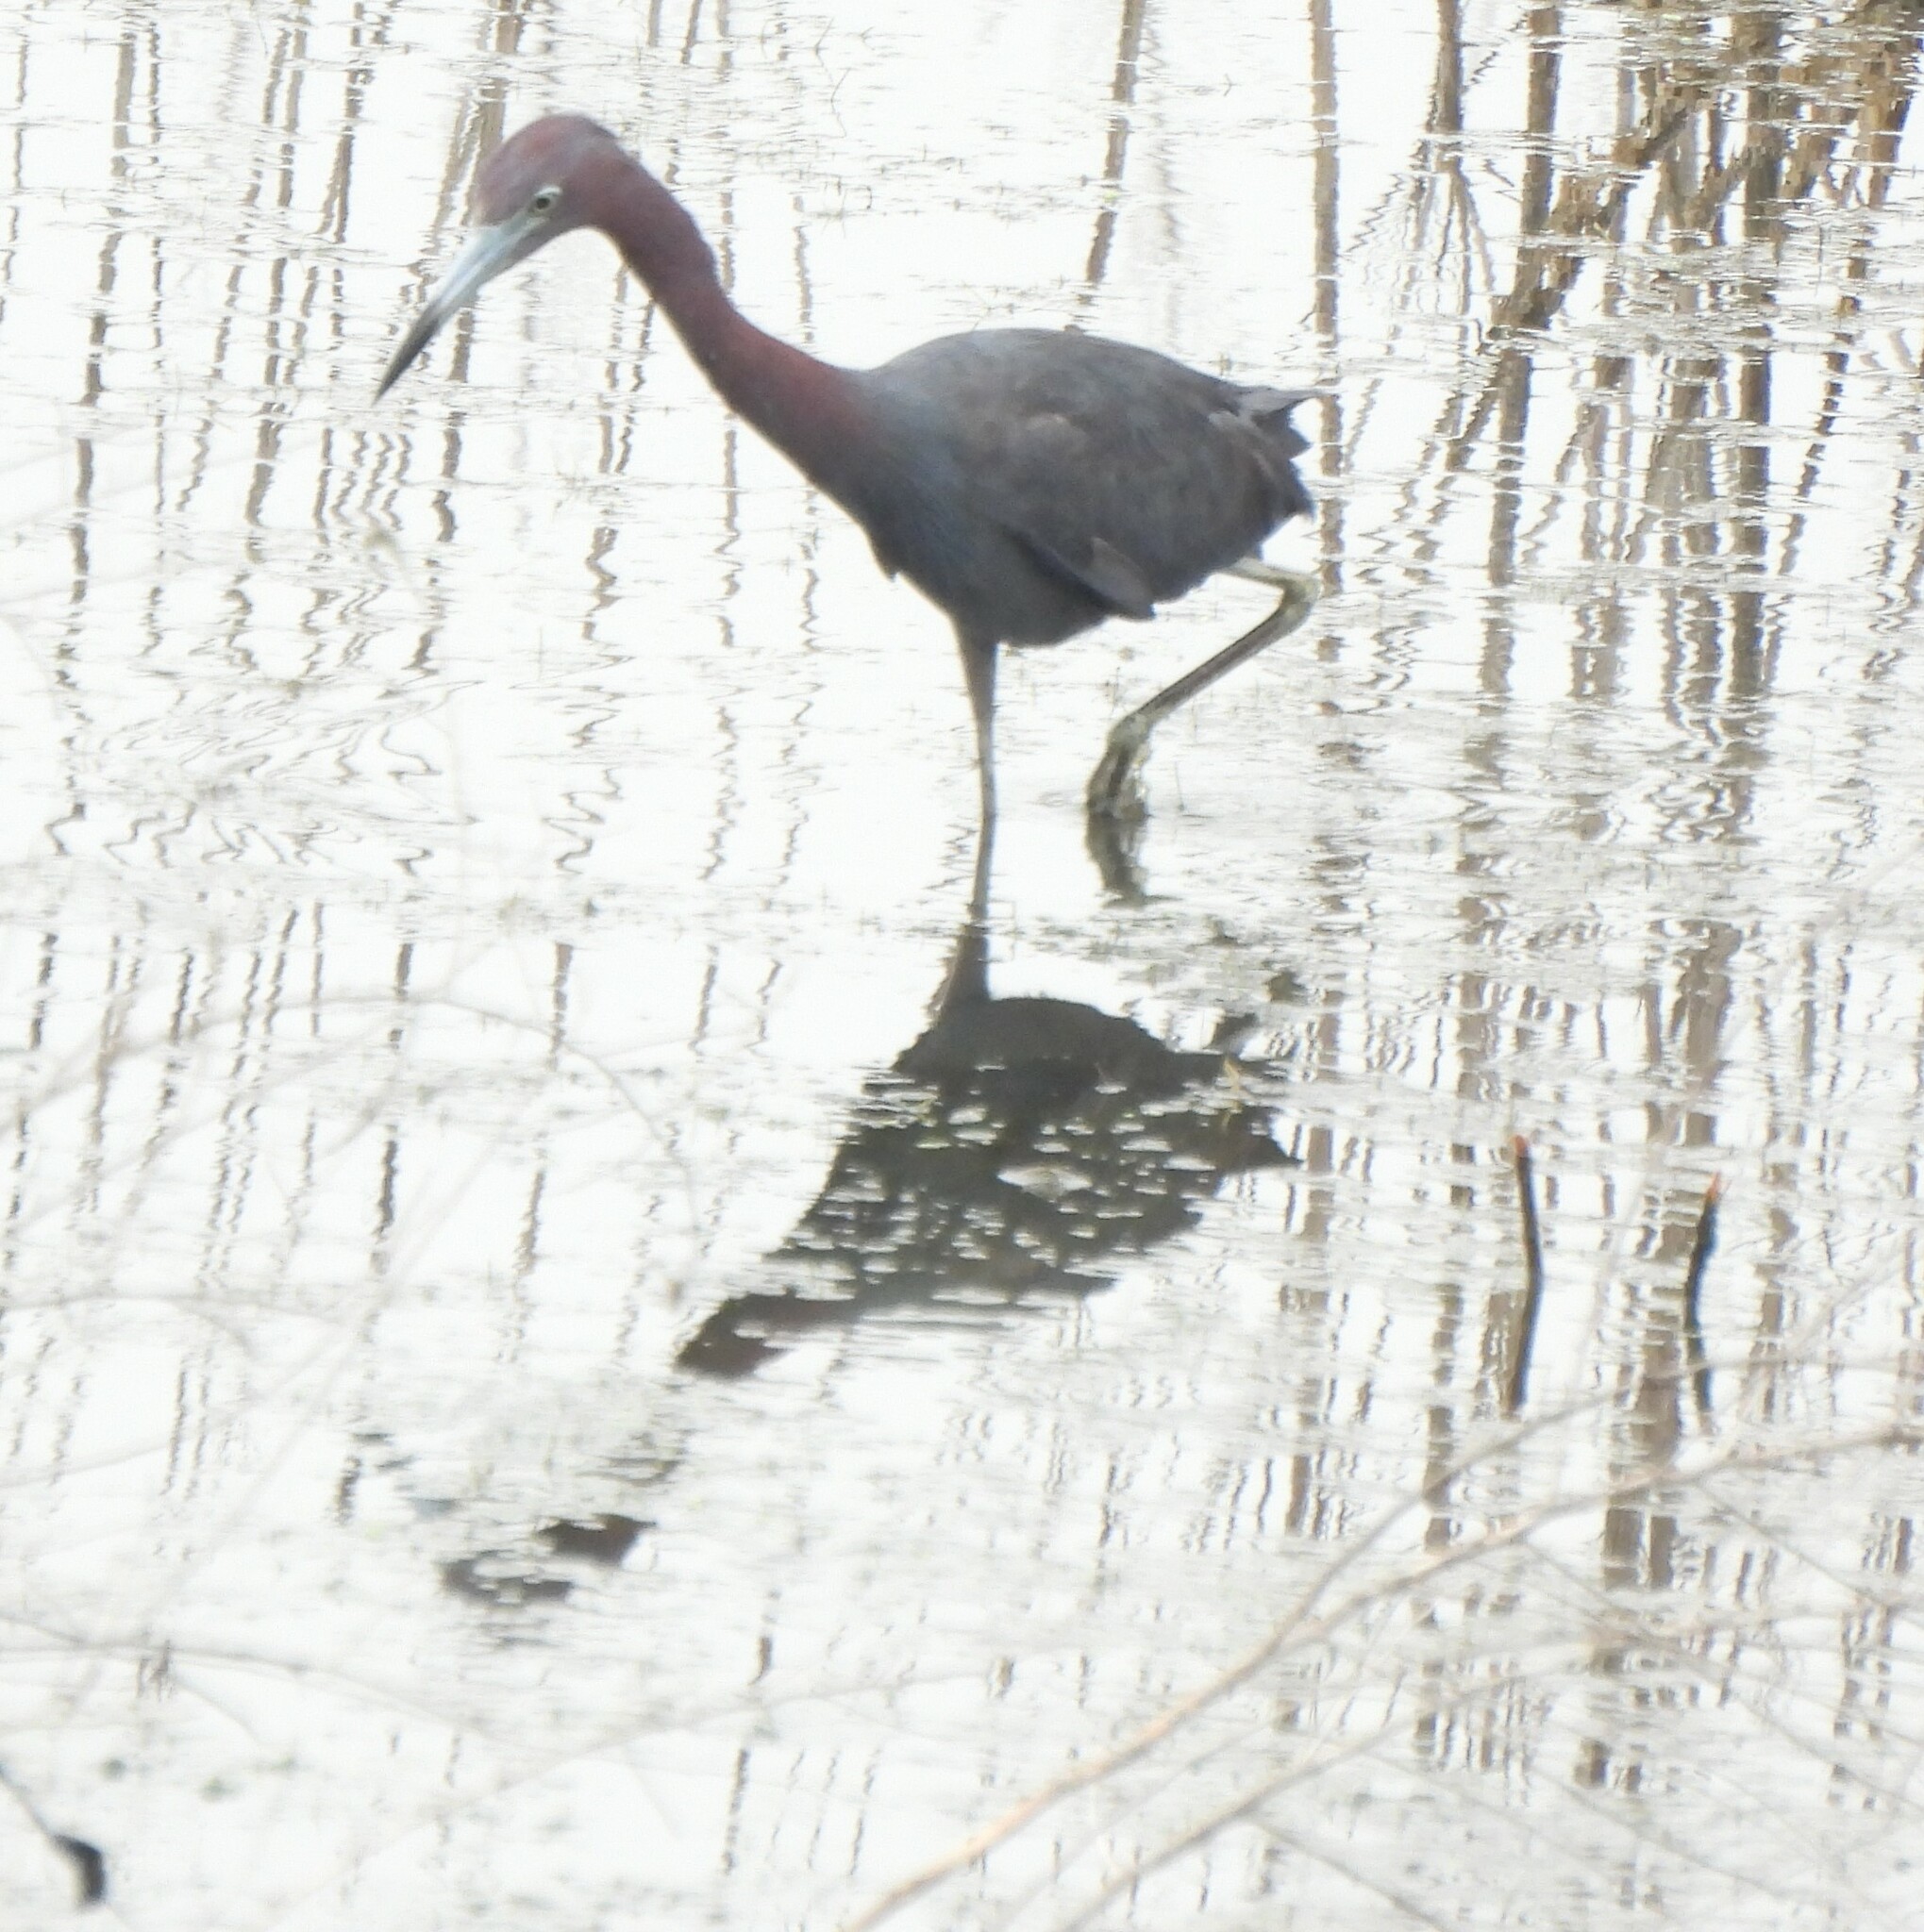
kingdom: Animalia
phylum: Chordata
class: Aves
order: Pelecaniformes
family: Ardeidae
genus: Egretta
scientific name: Egretta caerulea
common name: Little blue heron
